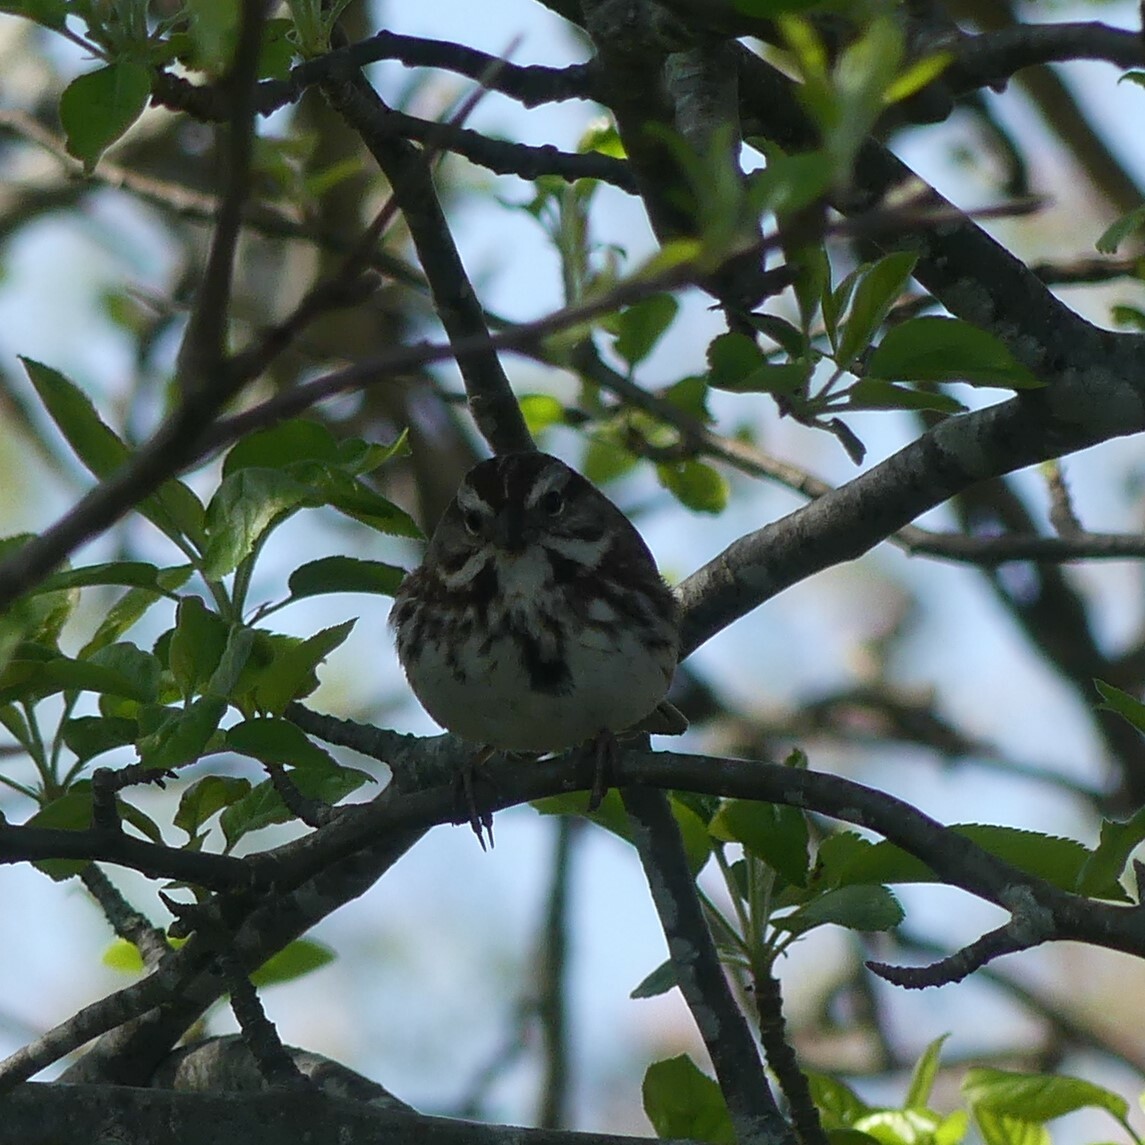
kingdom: Animalia
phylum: Chordata
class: Aves
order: Passeriformes
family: Passerellidae
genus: Melospiza
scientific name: Melospiza melodia
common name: Song sparrow
